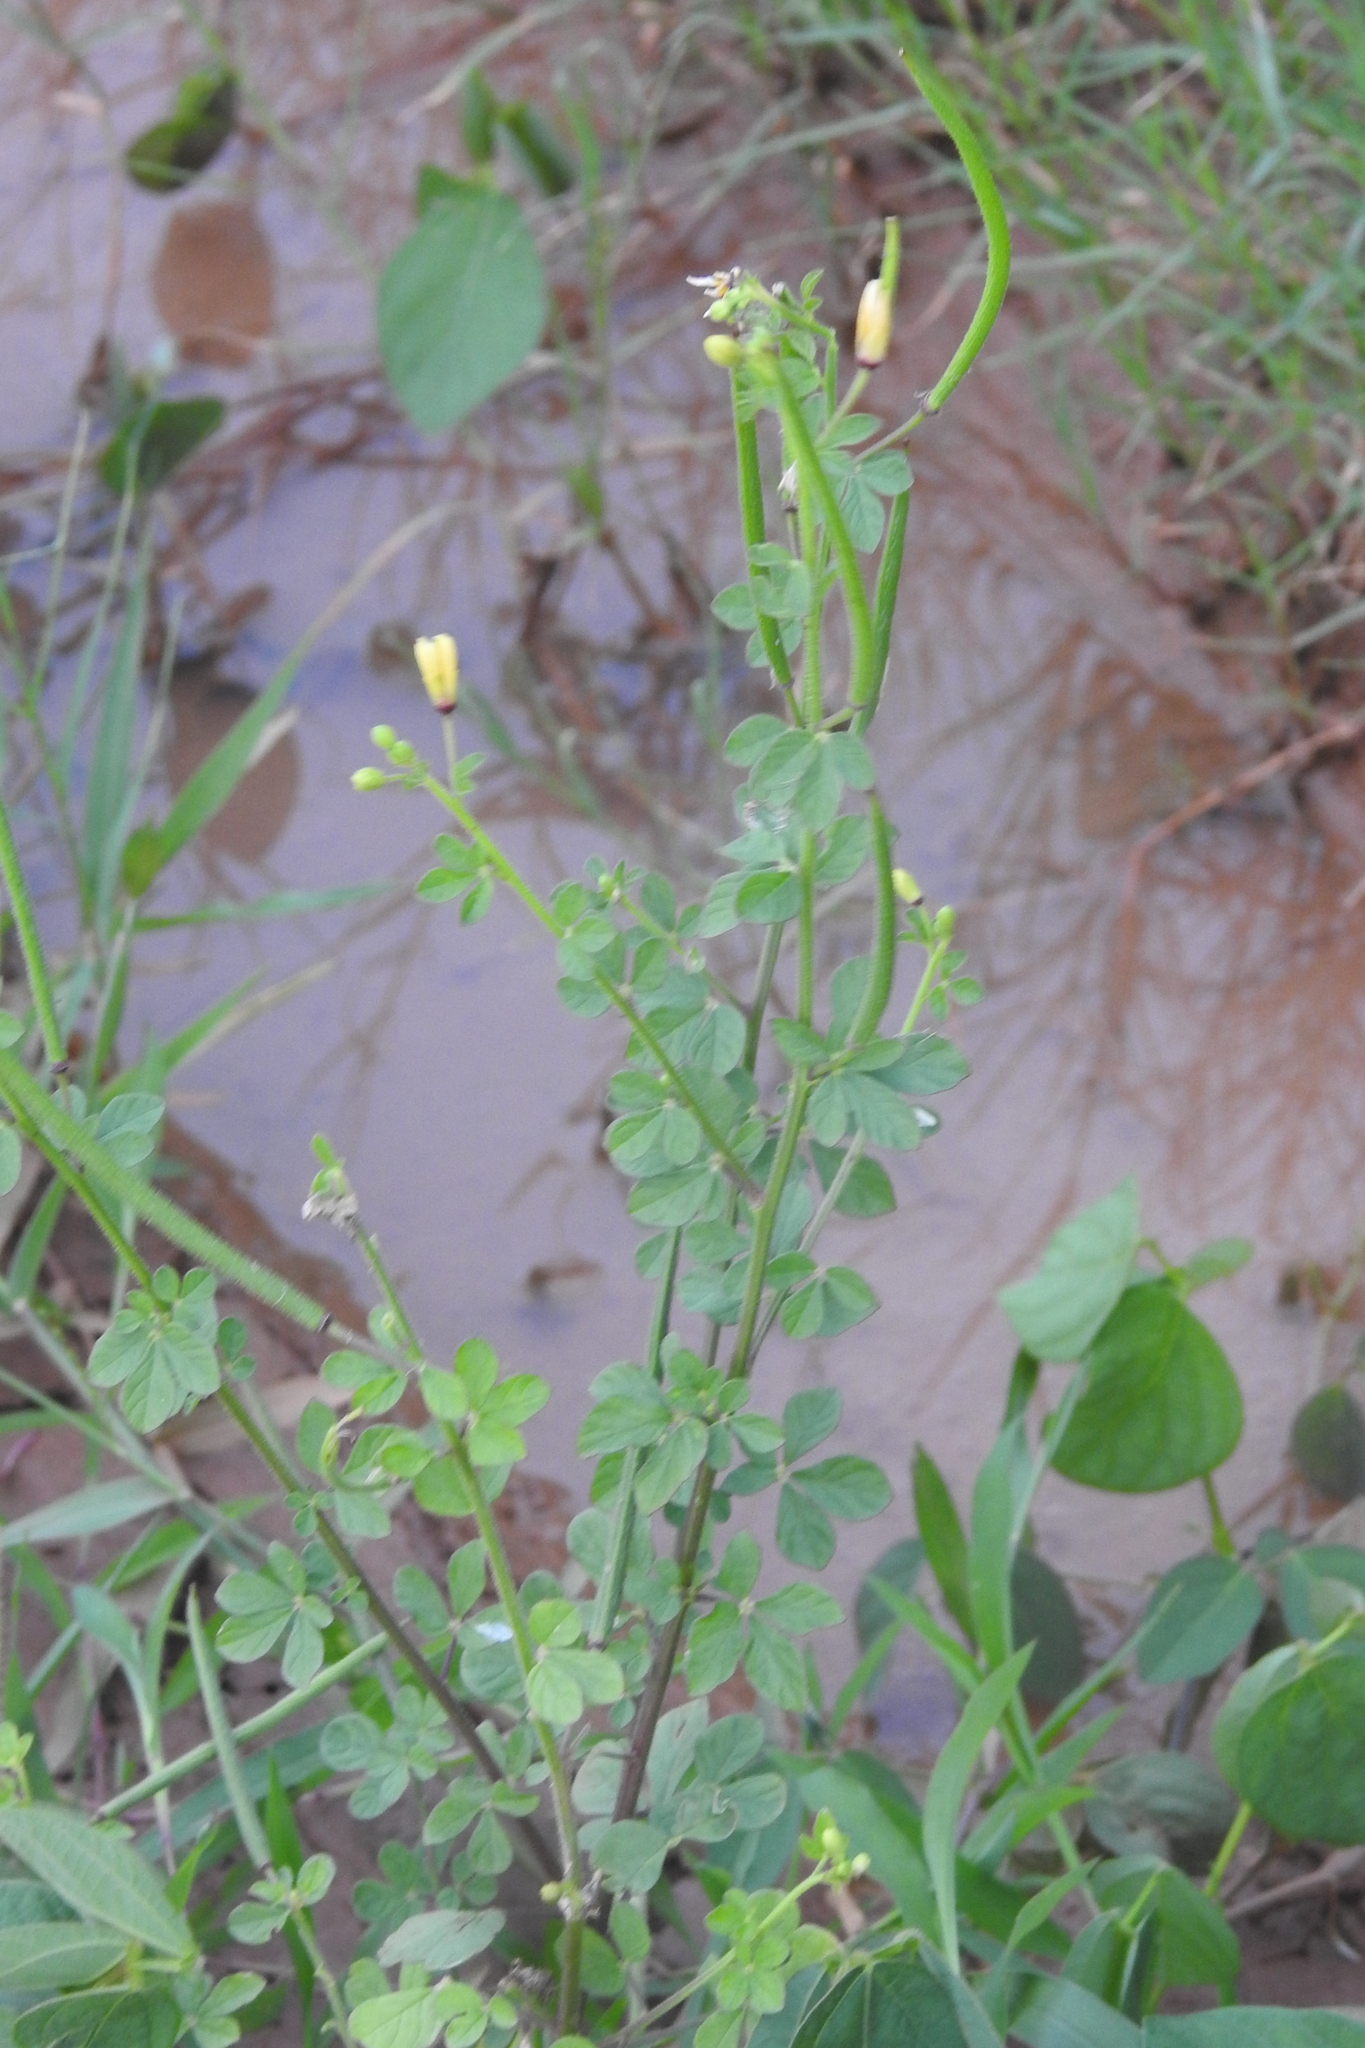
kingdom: Plantae
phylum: Tracheophyta
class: Magnoliopsida
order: Brassicales
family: Cleomaceae
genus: Arivela
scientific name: Arivela viscosa
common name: Asian spiderflower
